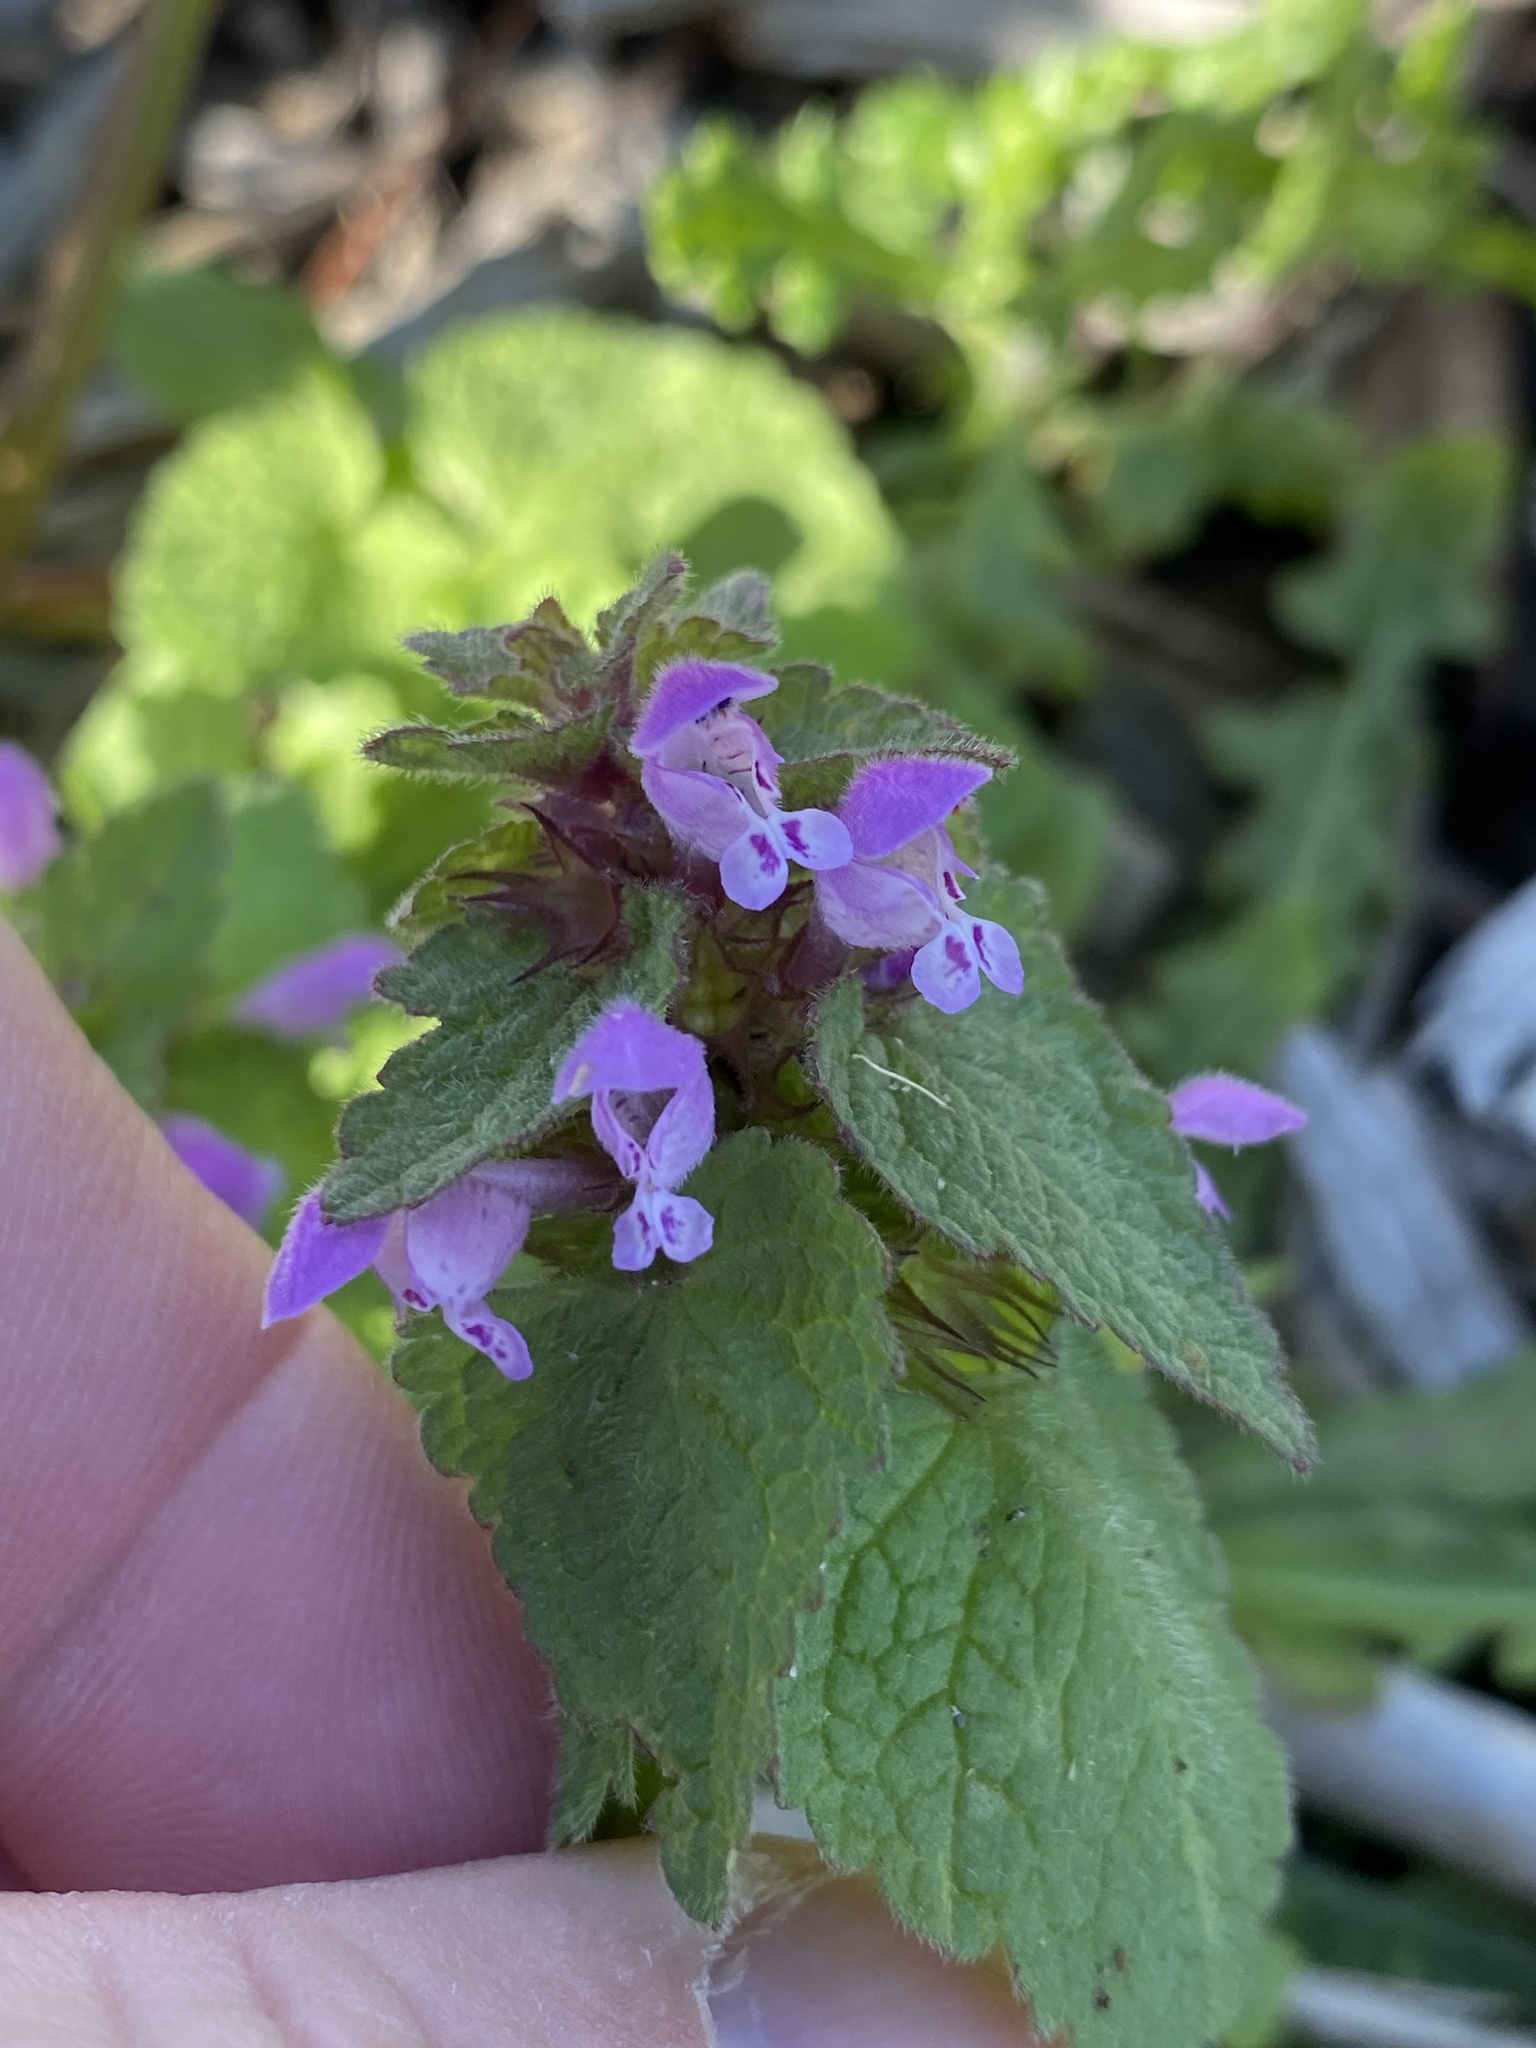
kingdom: Plantae
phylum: Tracheophyta
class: Magnoliopsida
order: Lamiales
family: Lamiaceae
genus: Lamium
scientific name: Lamium purpureum
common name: Red dead-nettle
